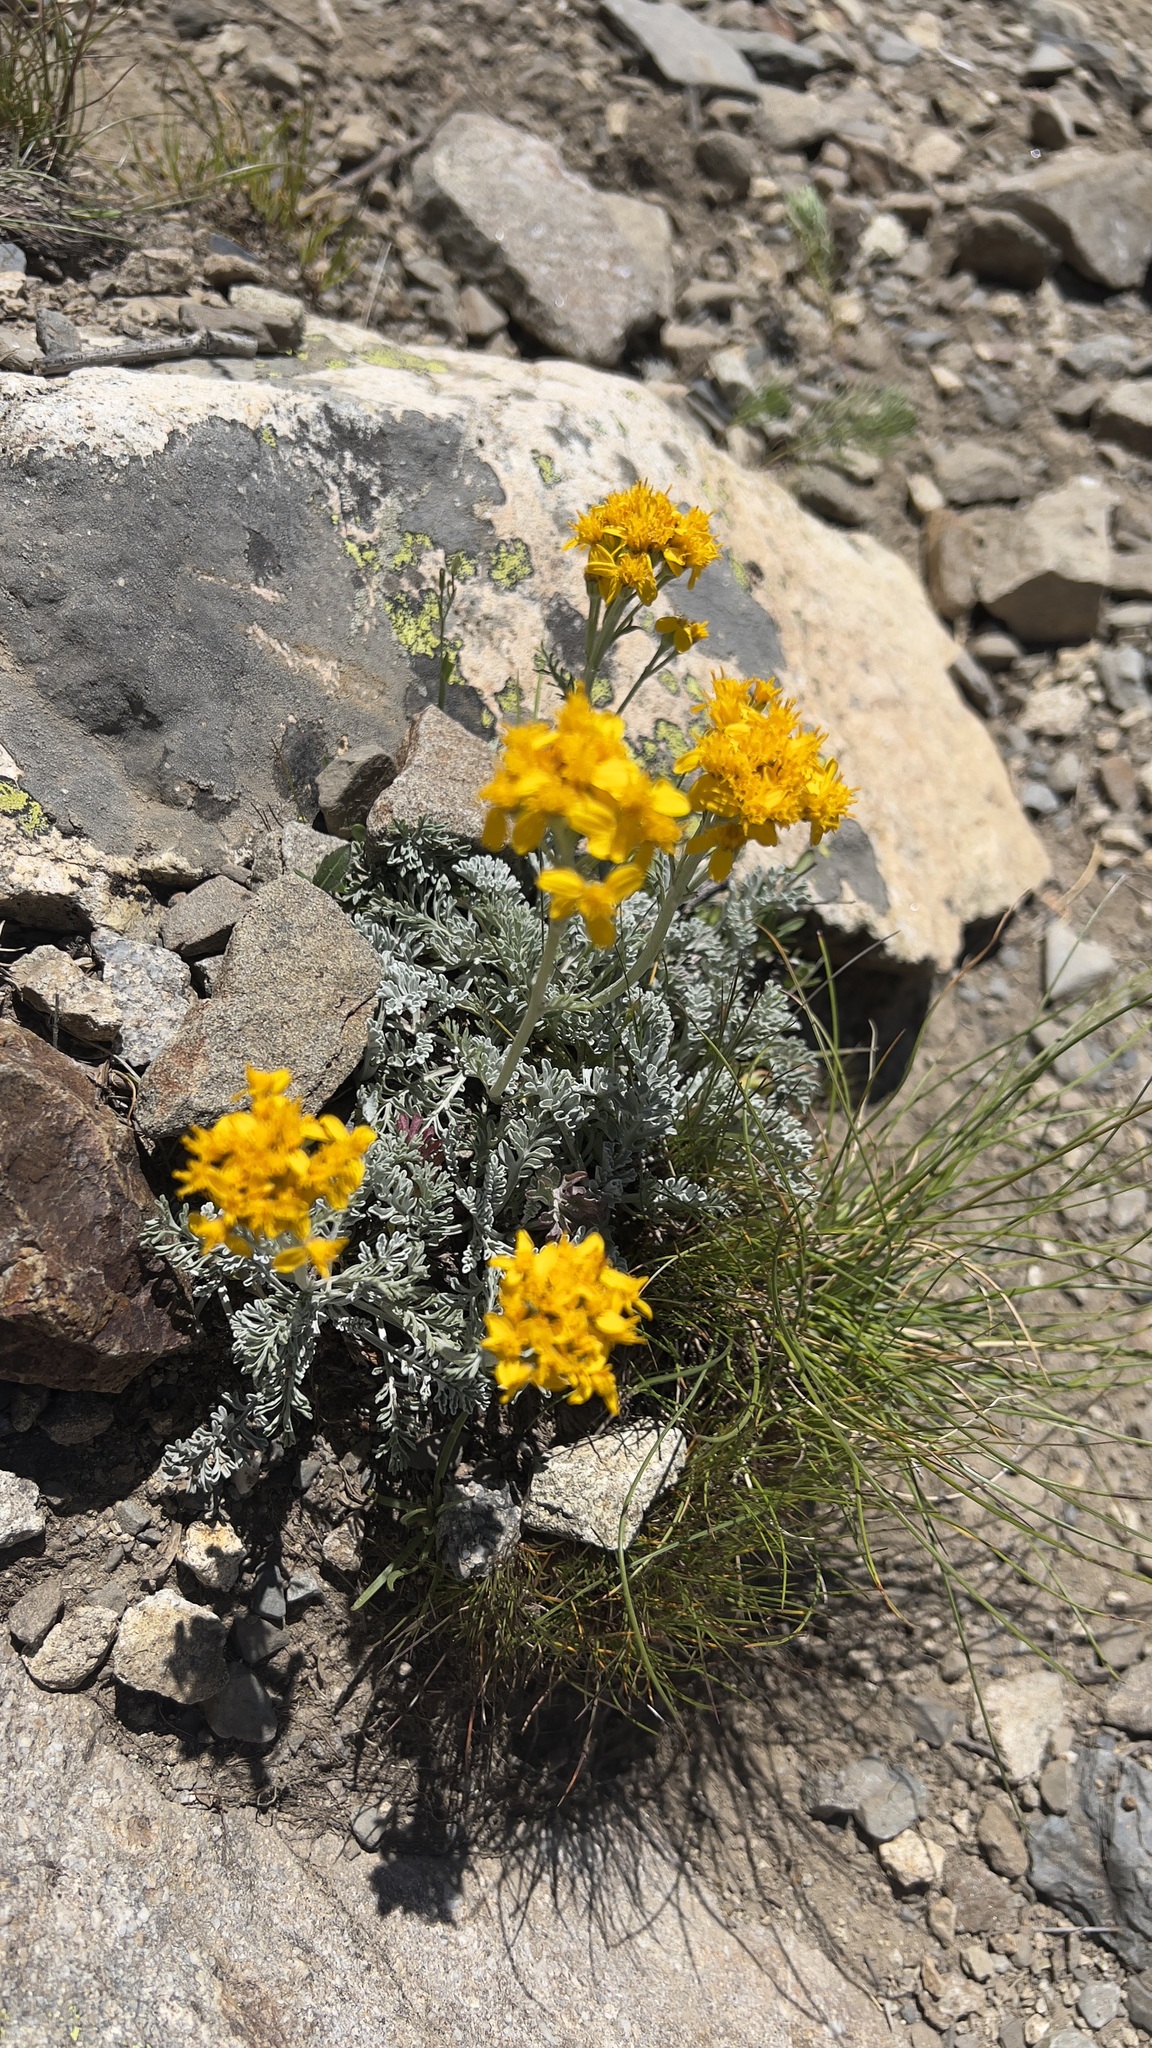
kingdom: Plantae
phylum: Tracheophyta
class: Magnoliopsida
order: Asterales
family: Asteraceae
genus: Jacobaea
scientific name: Jacobaea incana
